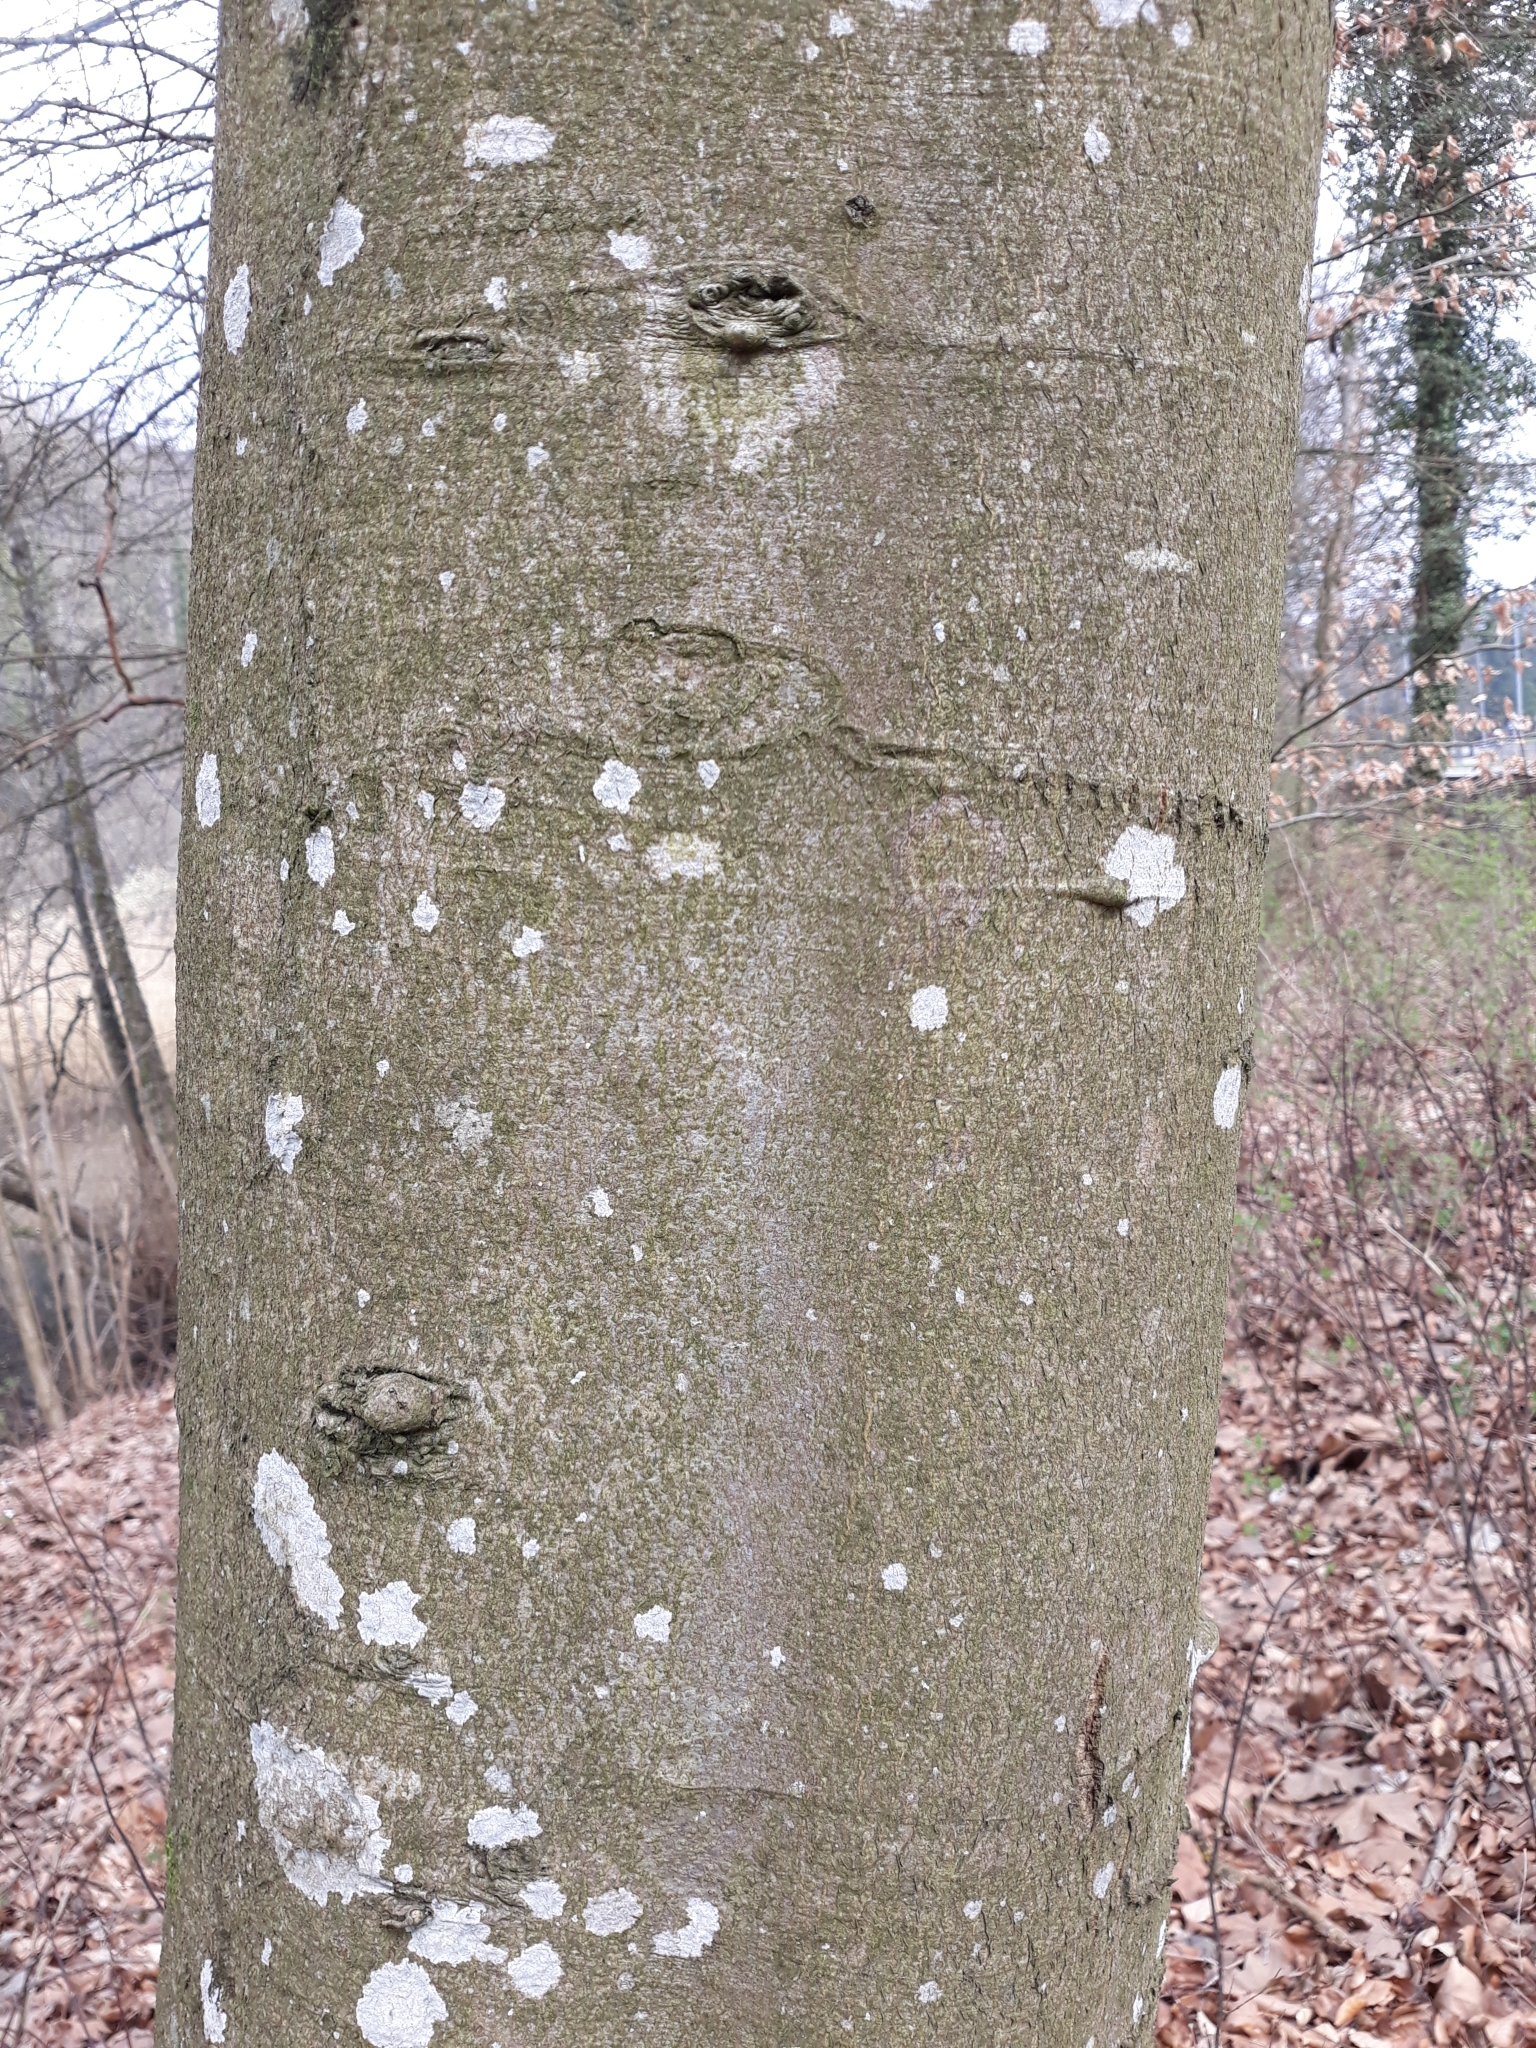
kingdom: Plantae
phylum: Tracheophyta
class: Magnoliopsida
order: Fagales
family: Fagaceae
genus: Fagus
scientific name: Fagus sylvatica
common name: Beech
